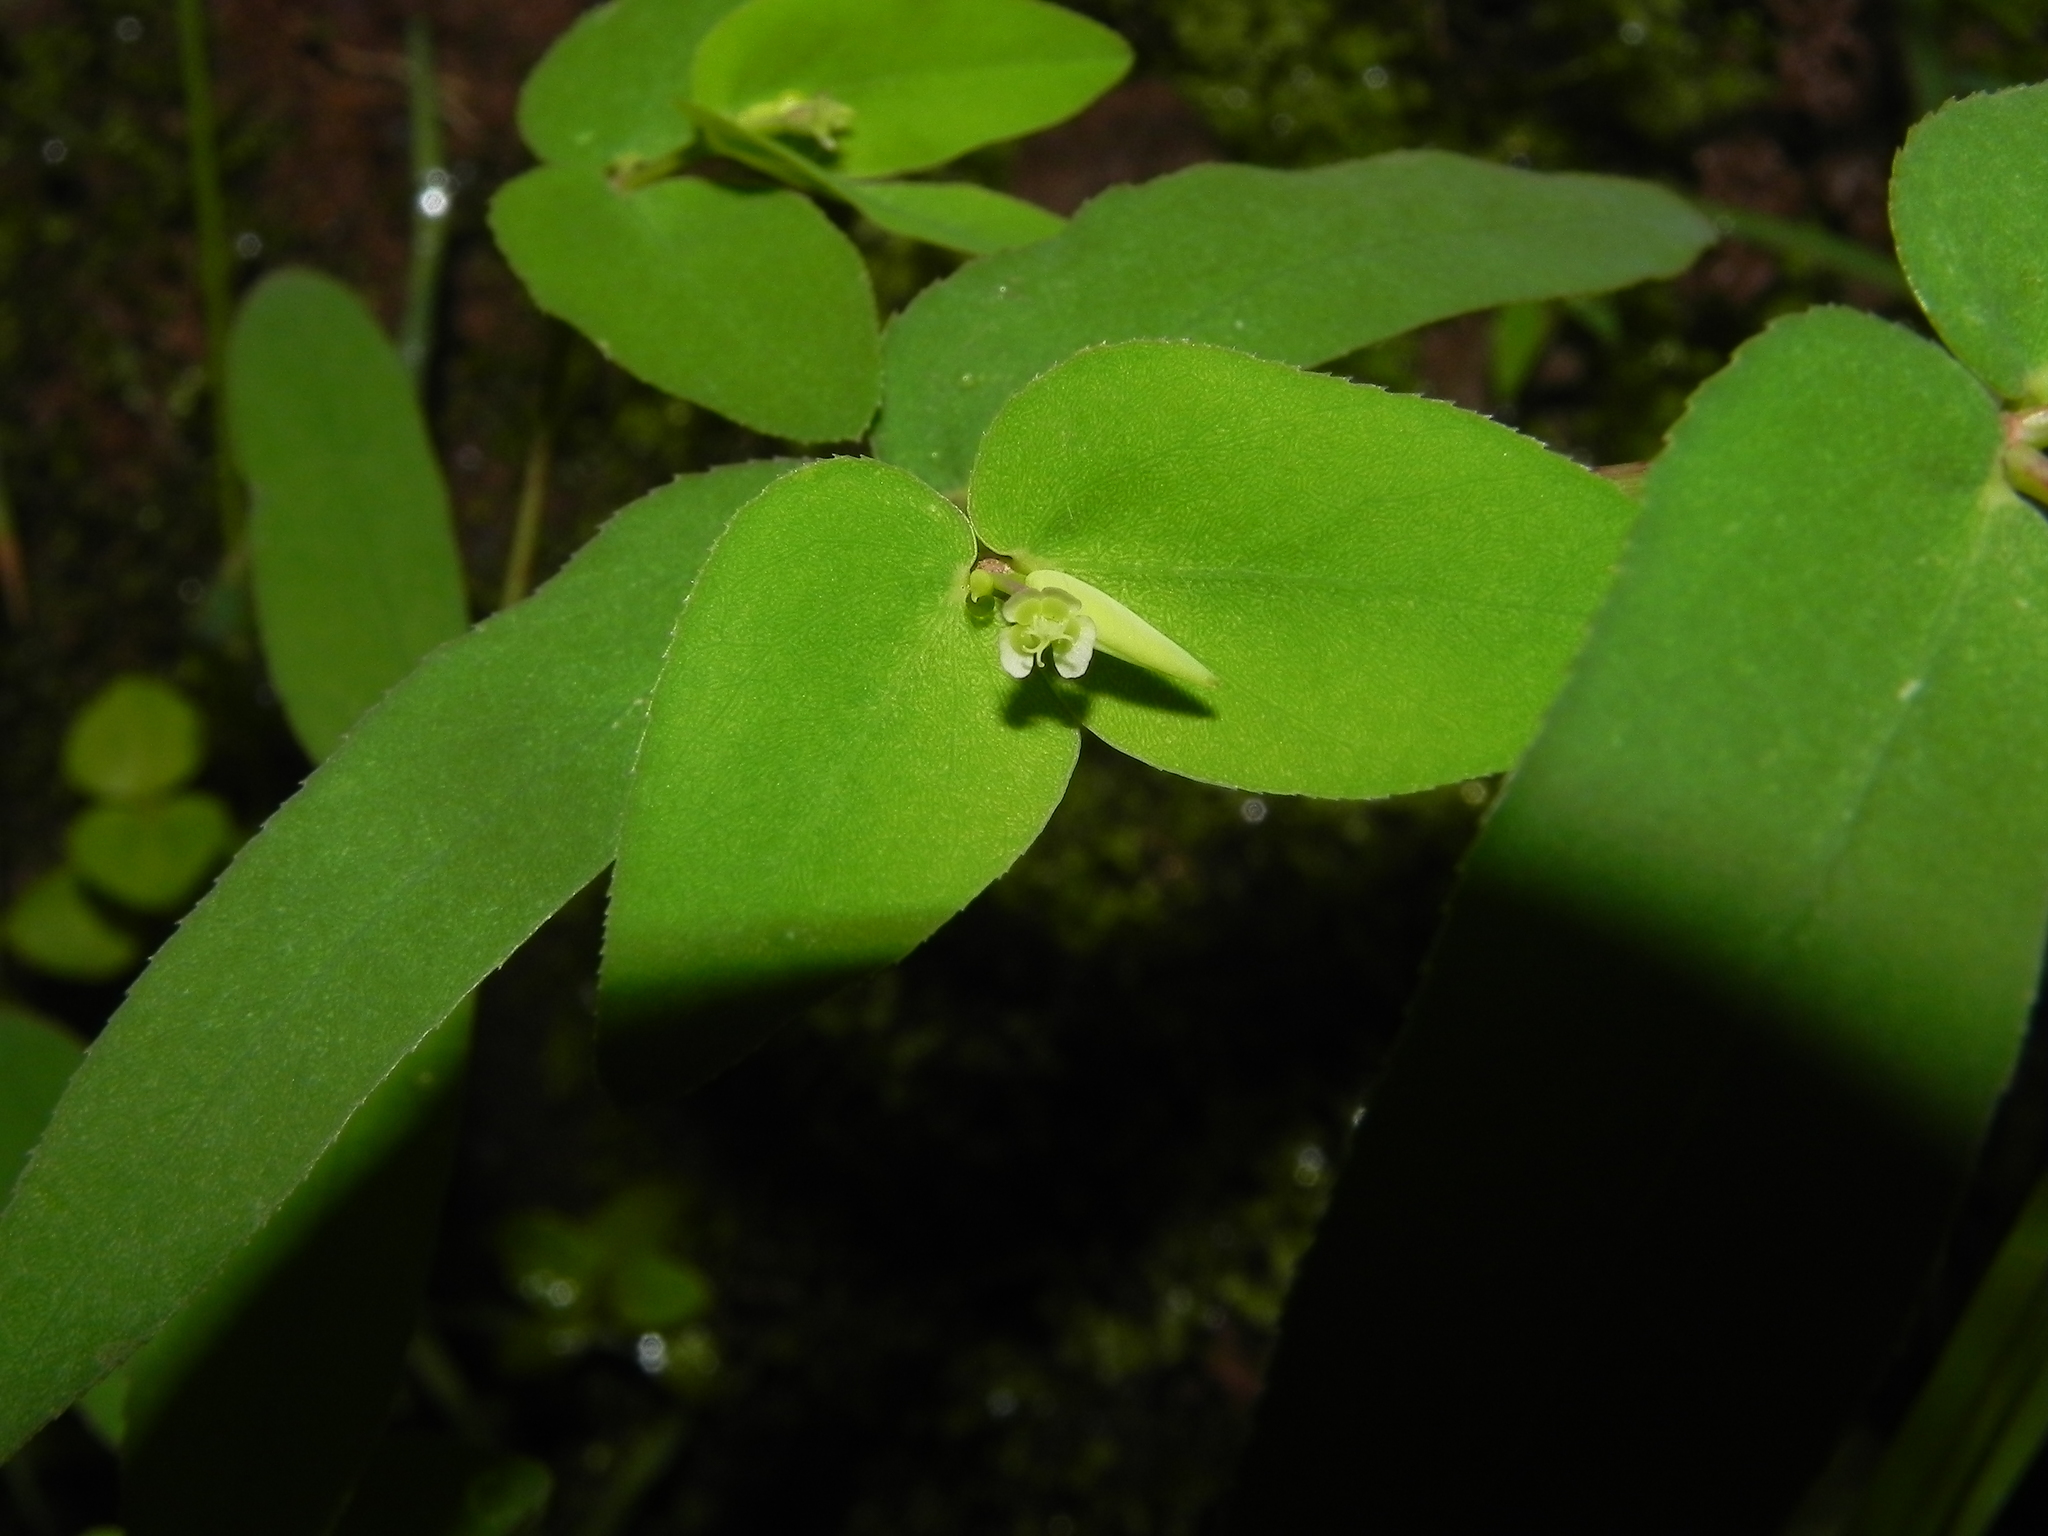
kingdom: Plantae
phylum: Tracheophyta
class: Magnoliopsida
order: Malpighiales
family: Euphorbiaceae
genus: Euphorbia
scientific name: Euphorbia katrajensis
